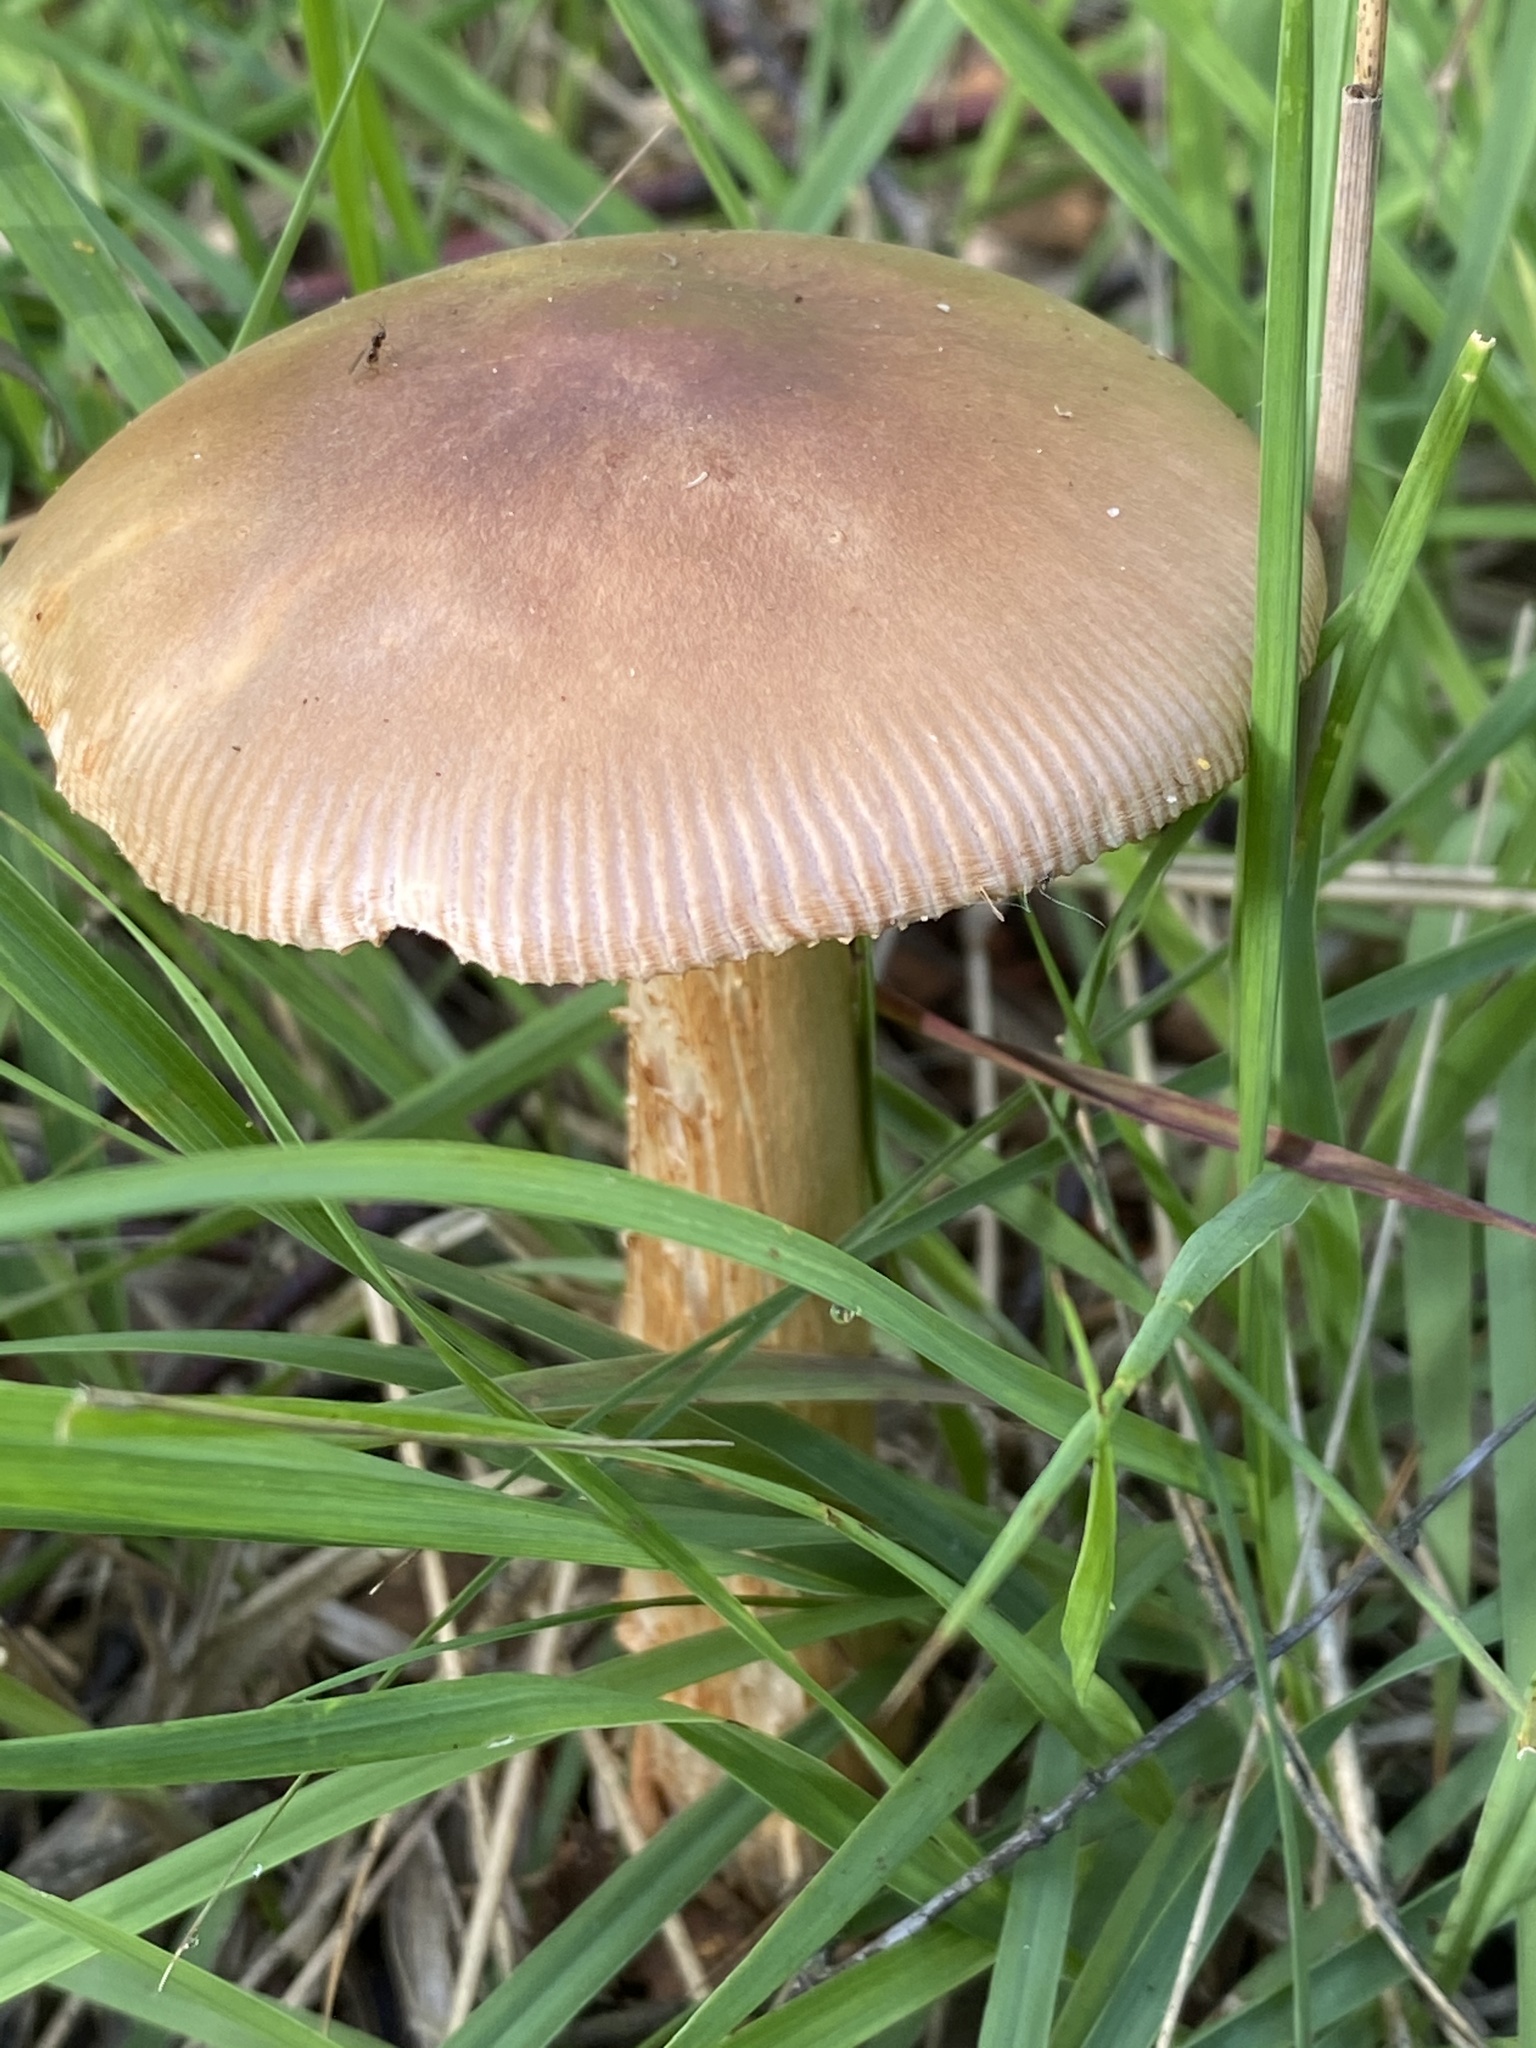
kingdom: Fungi
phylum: Basidiomycota
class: Agaricomycetes
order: Agaricales
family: Amanitaceae
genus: Amanita
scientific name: Amanita fulva
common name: Tawny grisette
